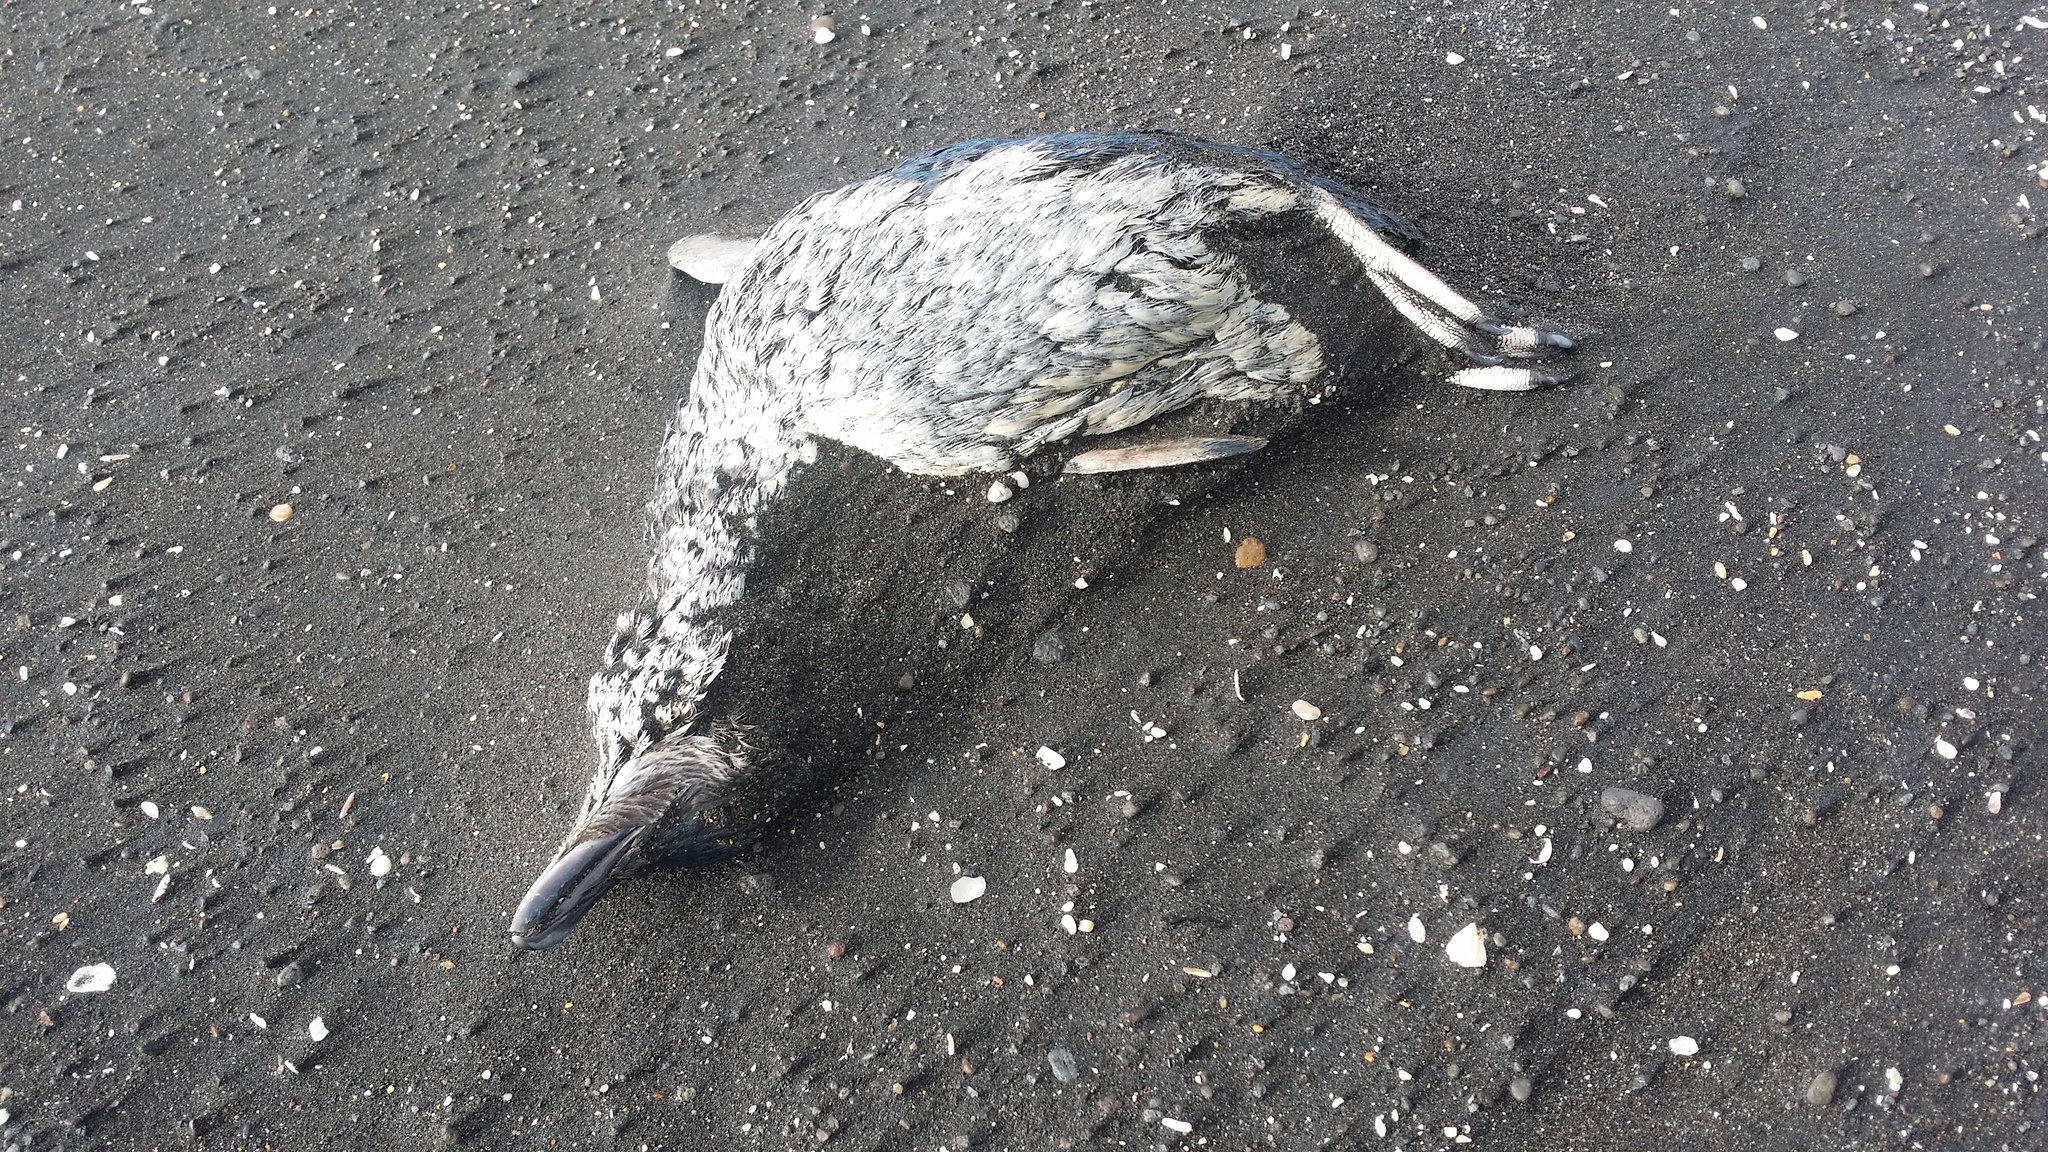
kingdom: Animalia
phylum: Chordata
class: Aves
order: Sphenisciformes
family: Spheniscidae
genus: Eudyptula
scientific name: Eudyptula minor
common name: Little penguin
